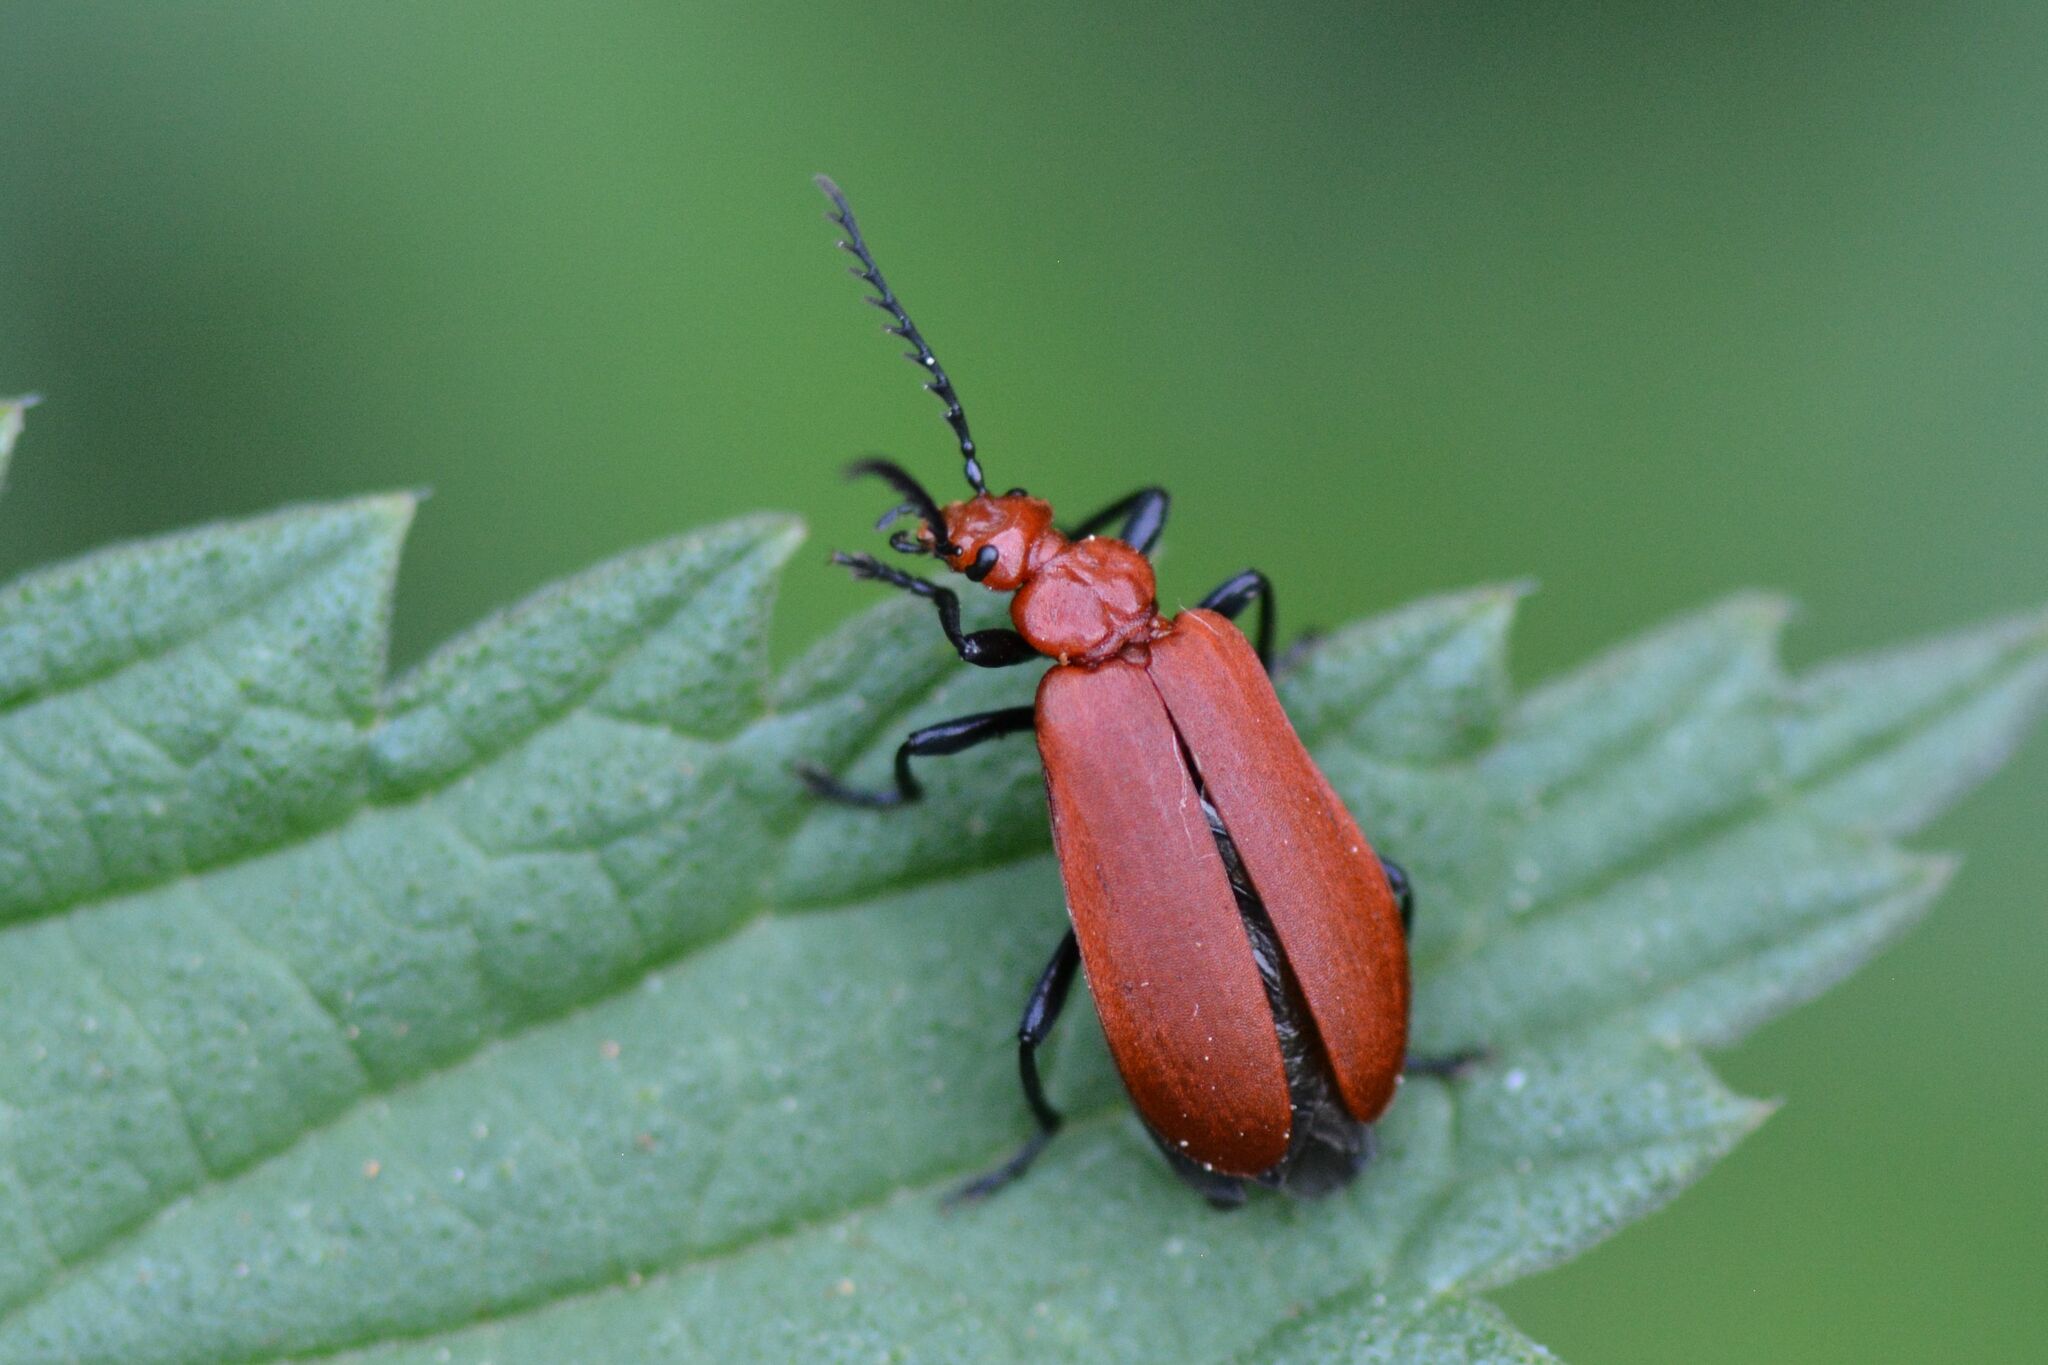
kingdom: Animalia
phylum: Arthropoda
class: Insecta
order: Coleoptera
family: Pyrochroidae
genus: Pyrochroa
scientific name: Pyrochroa serraticornis
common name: Red-headed cardinal beetle
